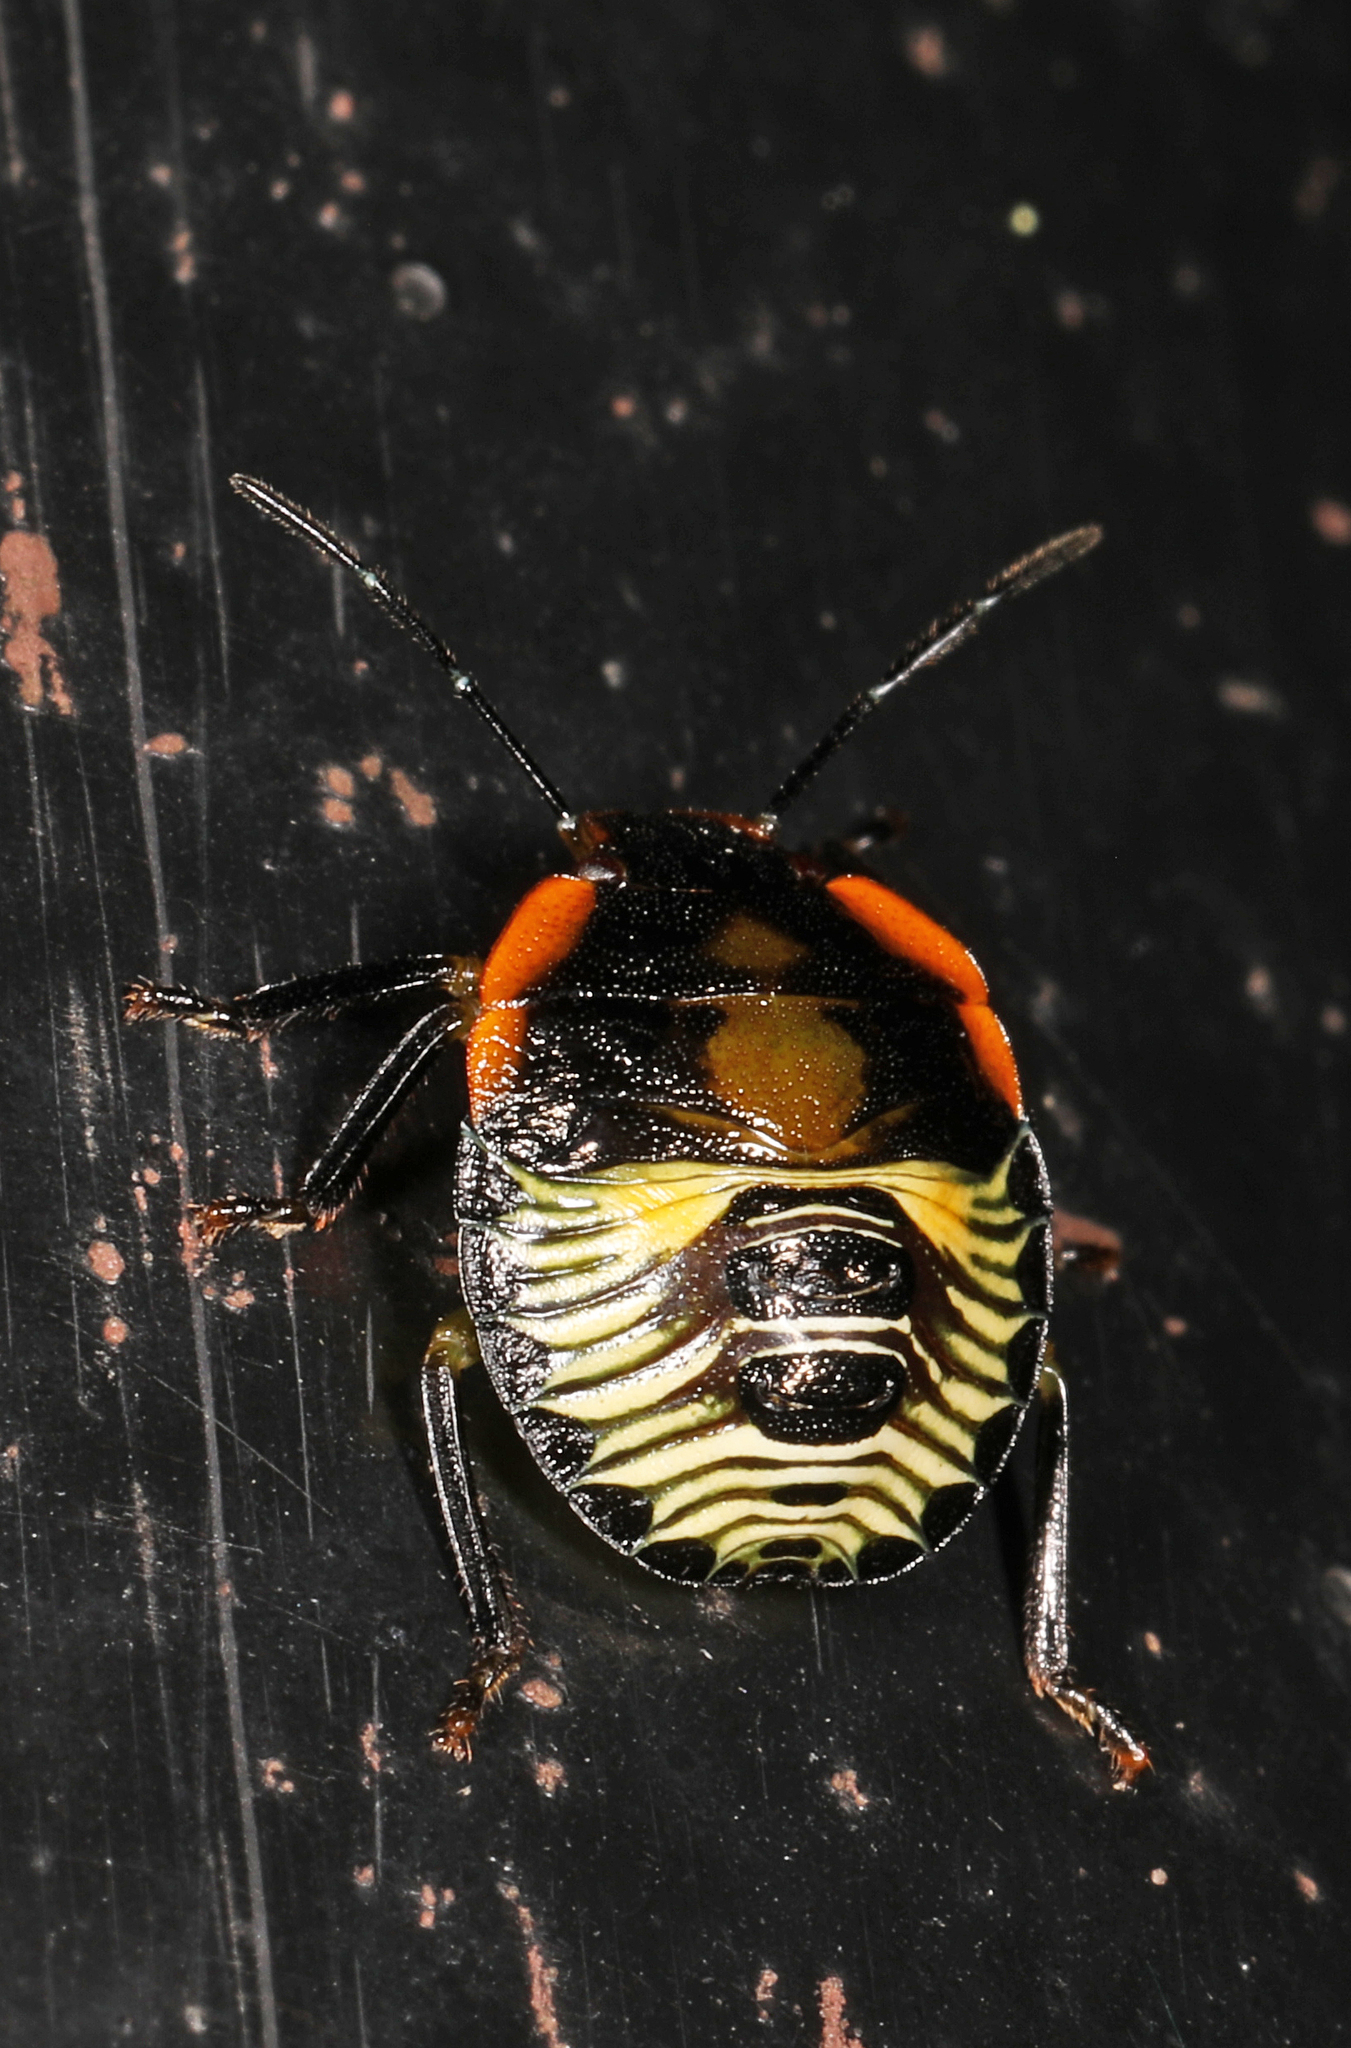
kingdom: Animalia
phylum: Arthropoda
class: Insecta
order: Hemiptera
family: Pentatomidae
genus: Chinavia
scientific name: Chinavia hilaris
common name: Green stink bug
